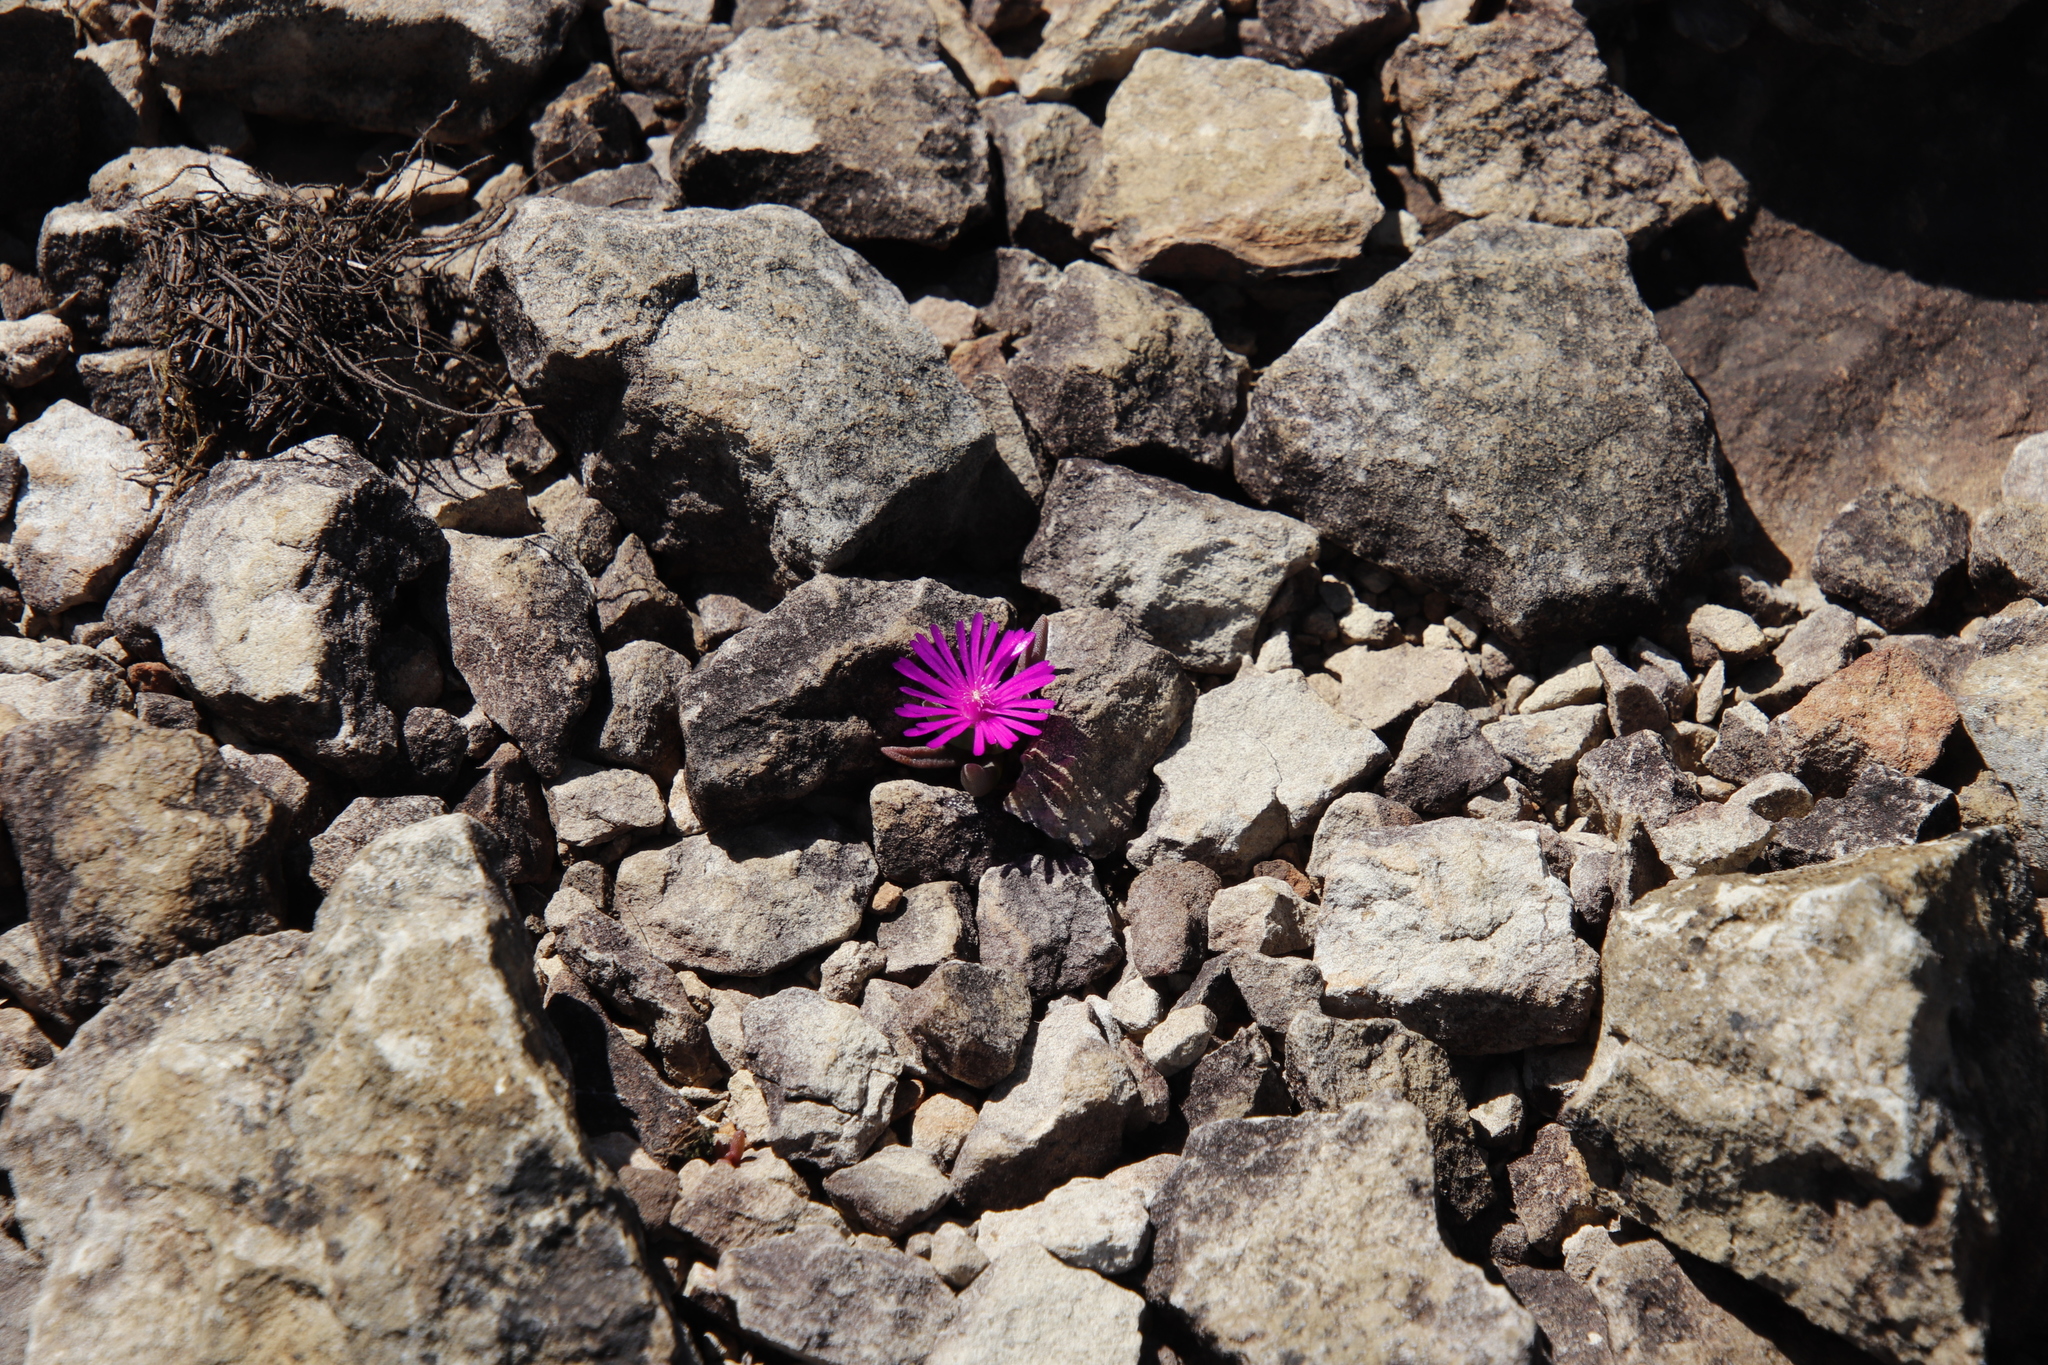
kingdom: Plantae
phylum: Tracheophyta
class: Magnoliopsida
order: Caryophyllales
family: Aizoaceae
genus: Delosperma
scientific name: Delosperma basuticum
